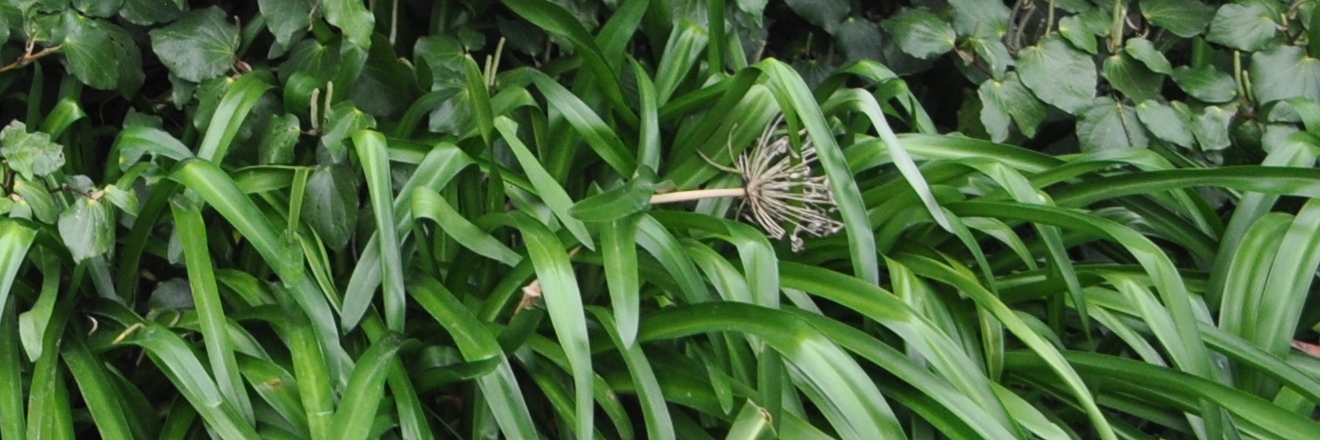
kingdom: Plantae
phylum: Tracheophyta
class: Liliopsida
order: Asparagales
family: Amaryllidaceae
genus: Agapanthus
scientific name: Agapanthus praecox
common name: African-lily
